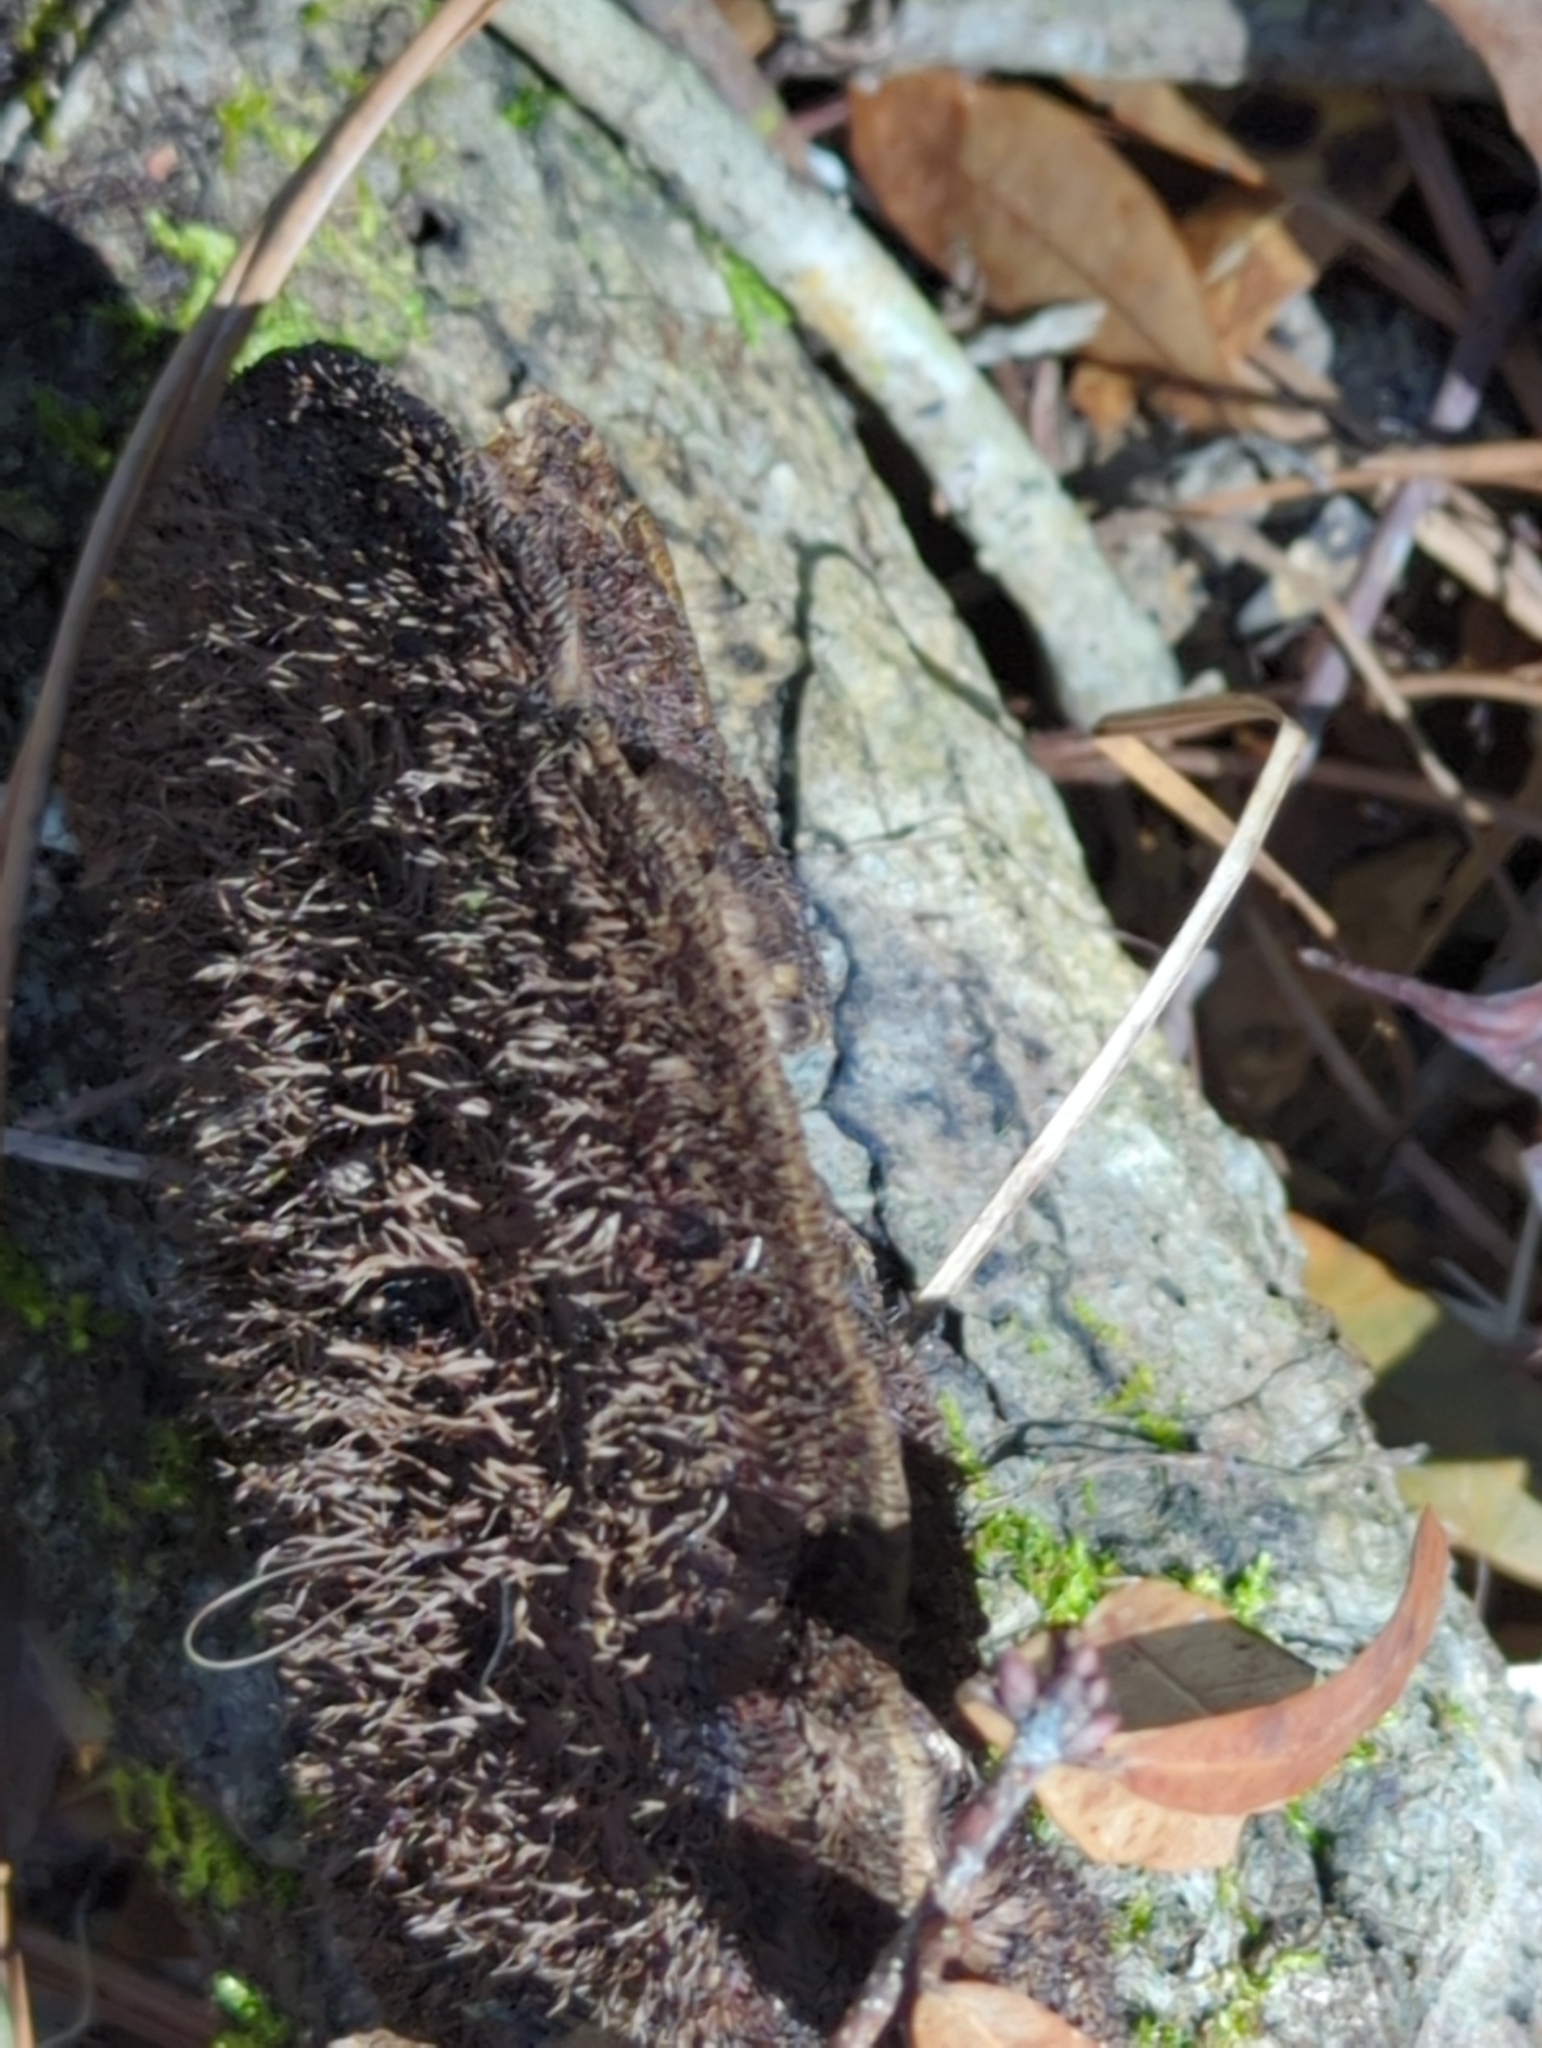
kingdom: Fungi
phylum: Basidiomycota
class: Agaricomycetes
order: Polyporales
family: Cerrenaceae
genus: Cerrena
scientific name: Cerrena hydnoides
